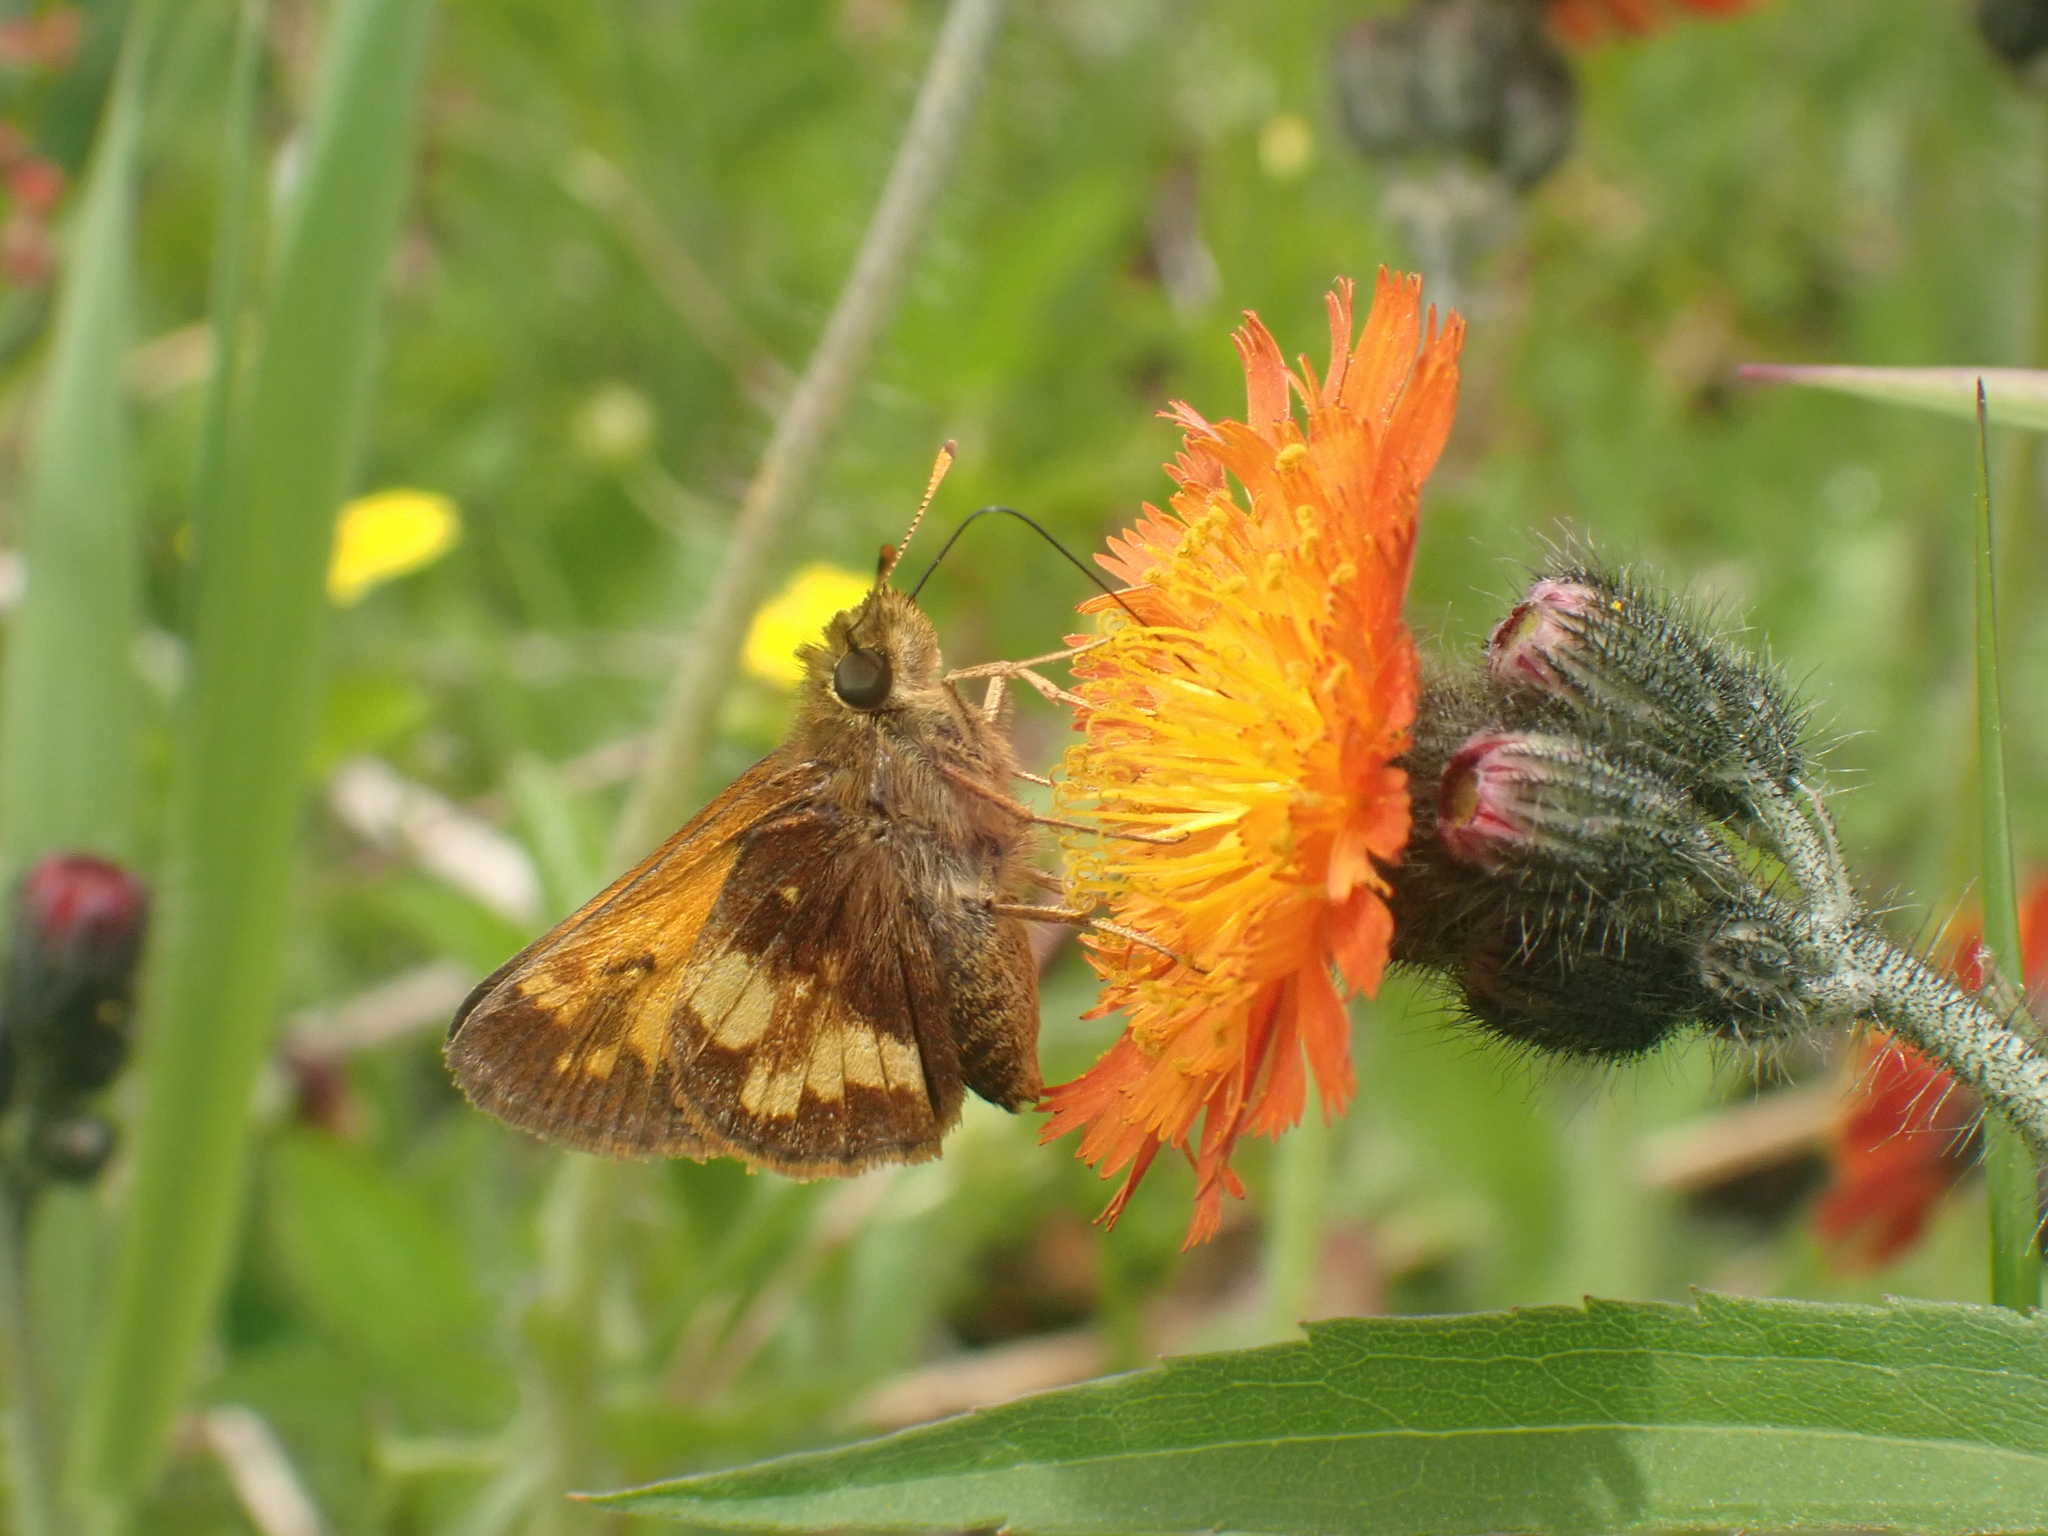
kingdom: Animalia
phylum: Arthropoda
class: Insecta
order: Lepidoptera
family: Hesperiidae
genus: Lon
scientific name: Lon hobomok
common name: Hobomok skipper
